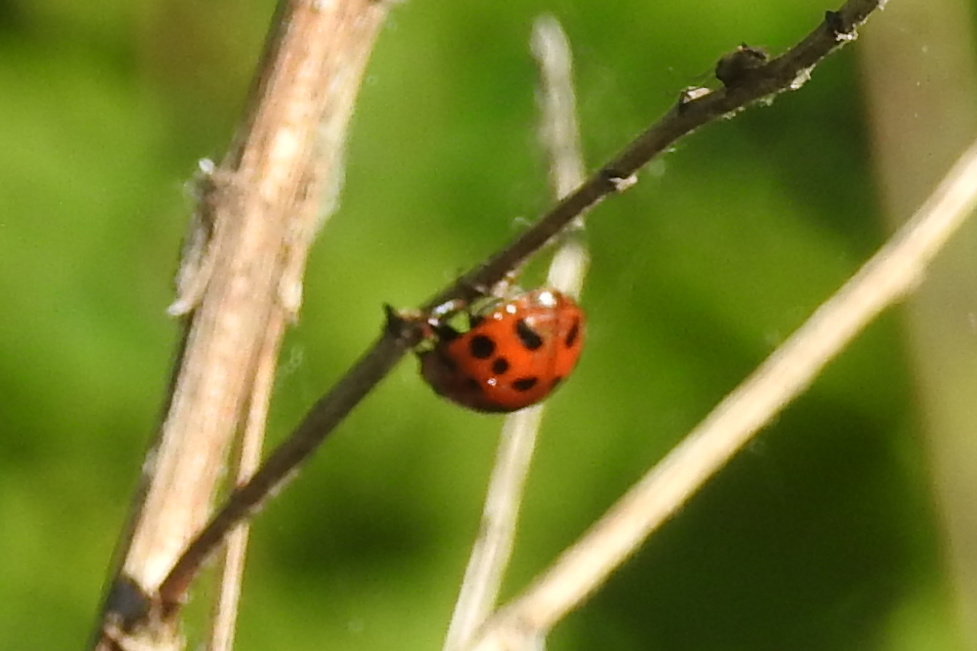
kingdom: Animalia
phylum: Arthropoda
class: Insecta
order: Coleoptera
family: Coccinellidae
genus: Harmonia
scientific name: Harmonia axyridis
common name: Harlequin ladybird
